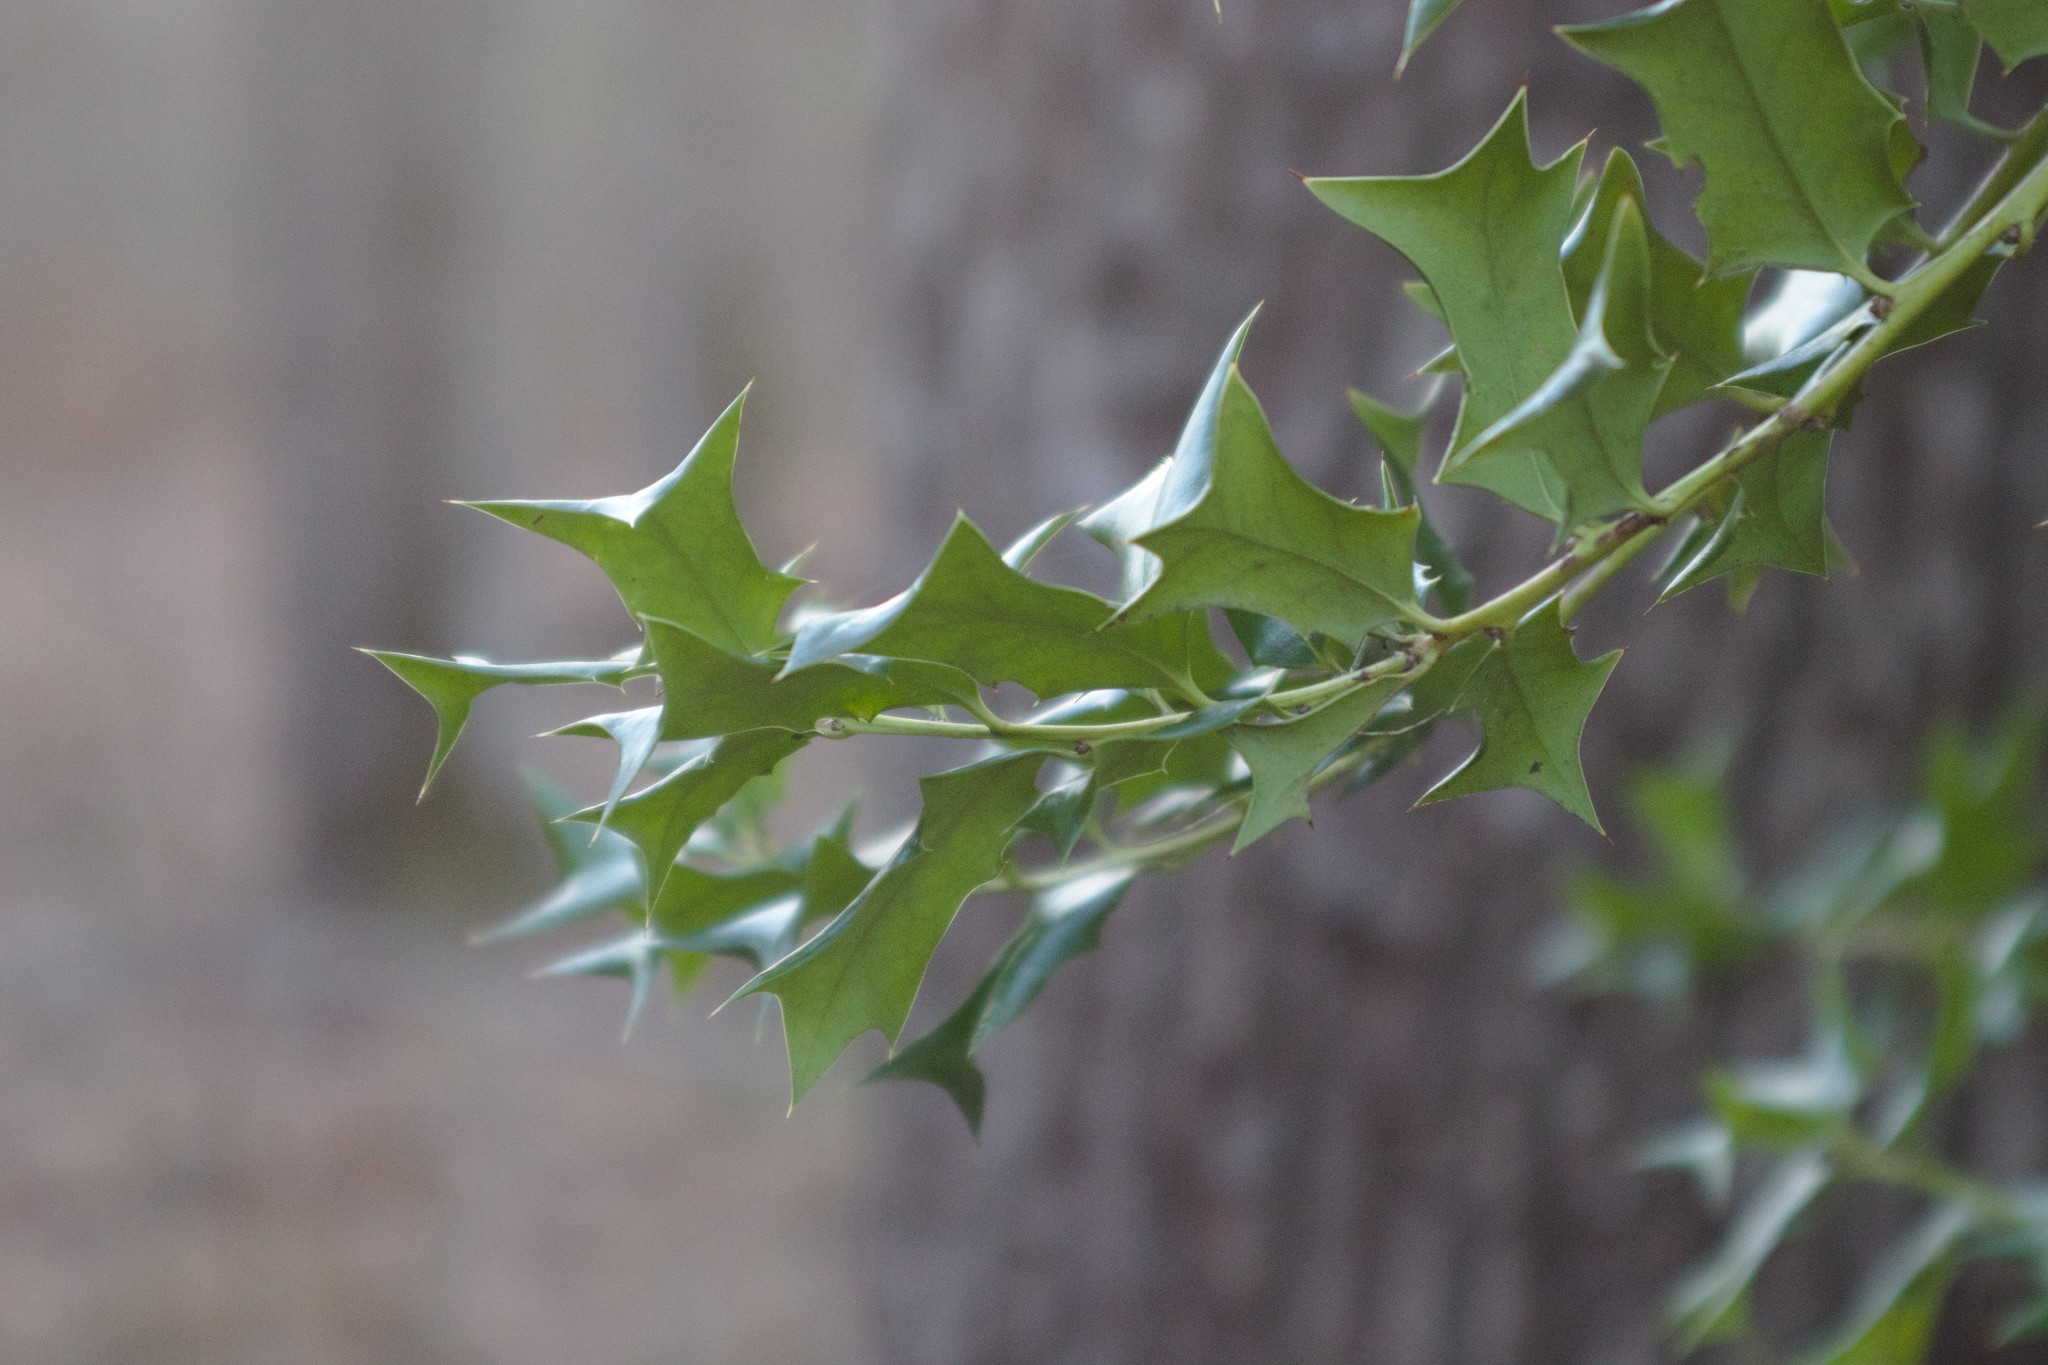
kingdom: Plantae
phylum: Tracheophyta
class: Magnoliopsida
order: Aquifoliales
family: Aquifoliaceae
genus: Ilex
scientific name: Ilex cornuta
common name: Chinese holly
